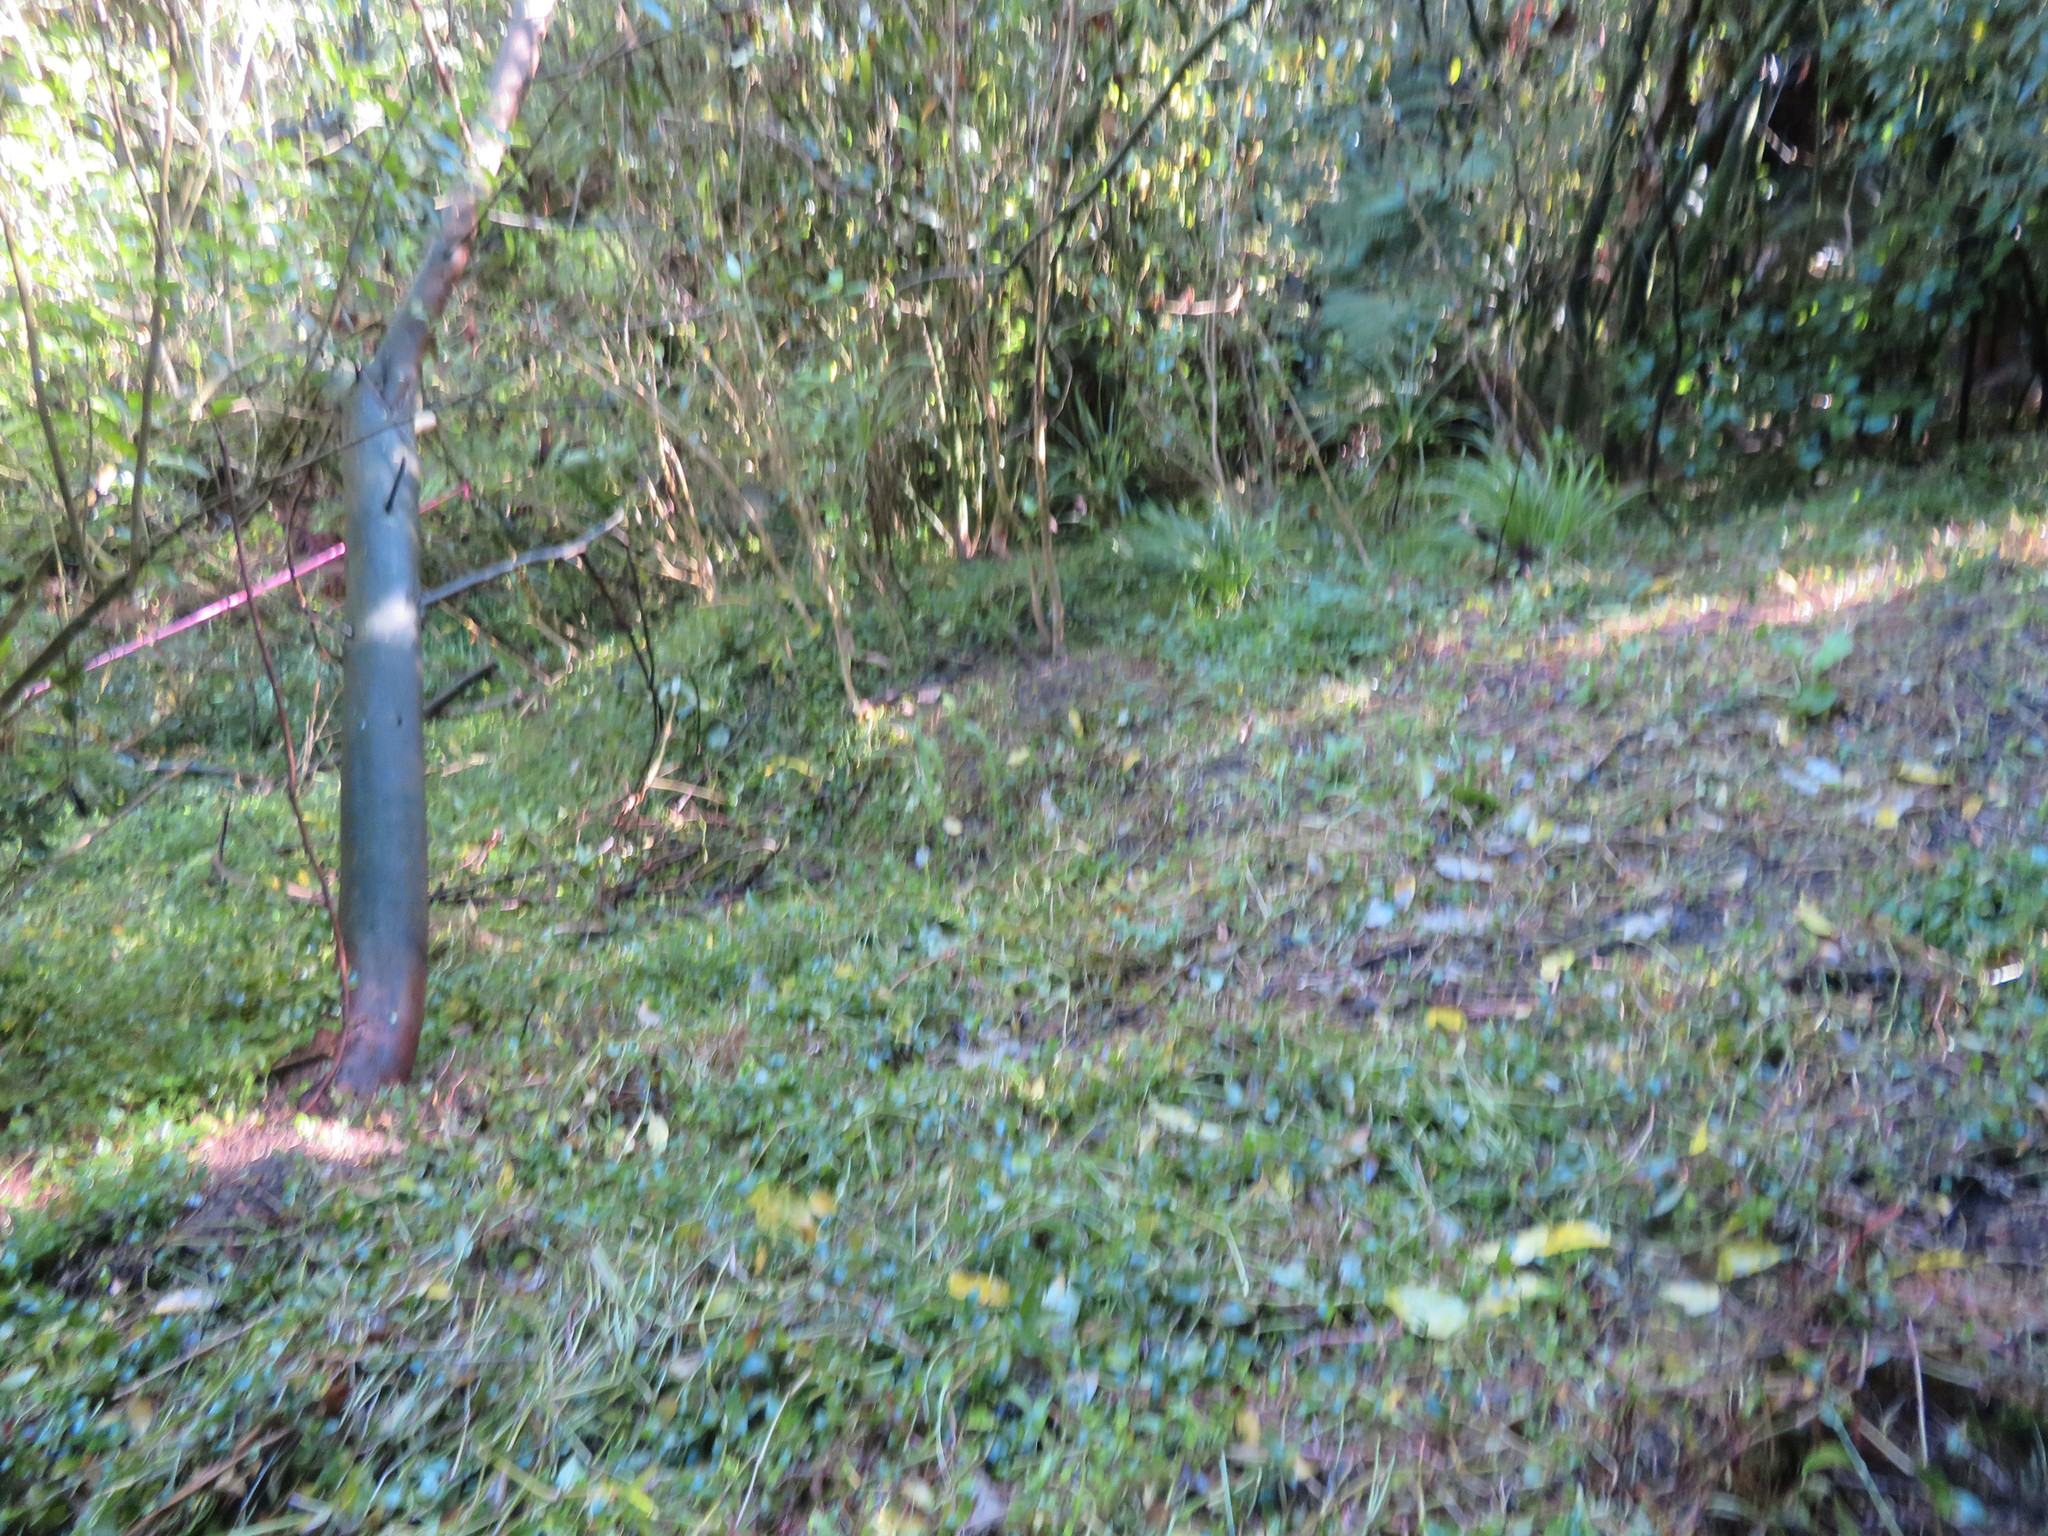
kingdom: Plantae
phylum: Tracheophyta
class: Liliopsida
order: Commelinales
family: Commelinaceae
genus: Tradescantia
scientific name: Tradescantia fluminensis
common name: Wandering-jew
